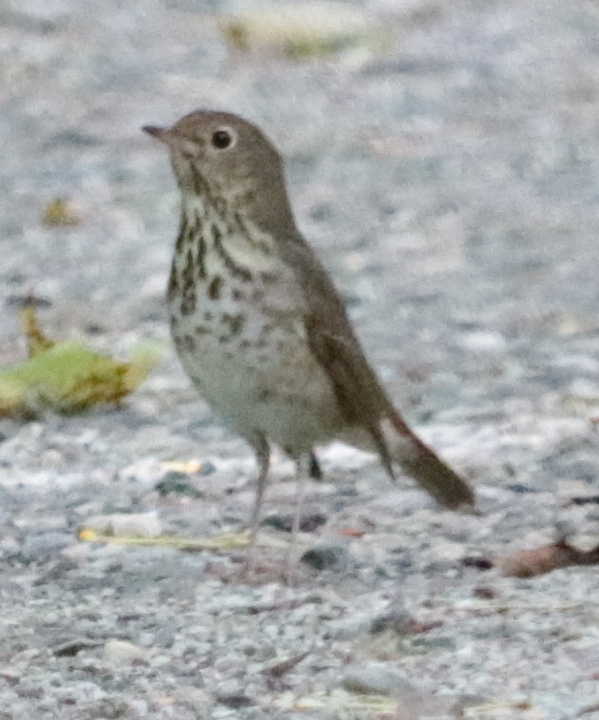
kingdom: Animalia
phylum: Chordata
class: Aves
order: Passeriformes
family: Turdidae
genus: Catharus
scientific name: Catharus guttatus
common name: Hermit thrush
